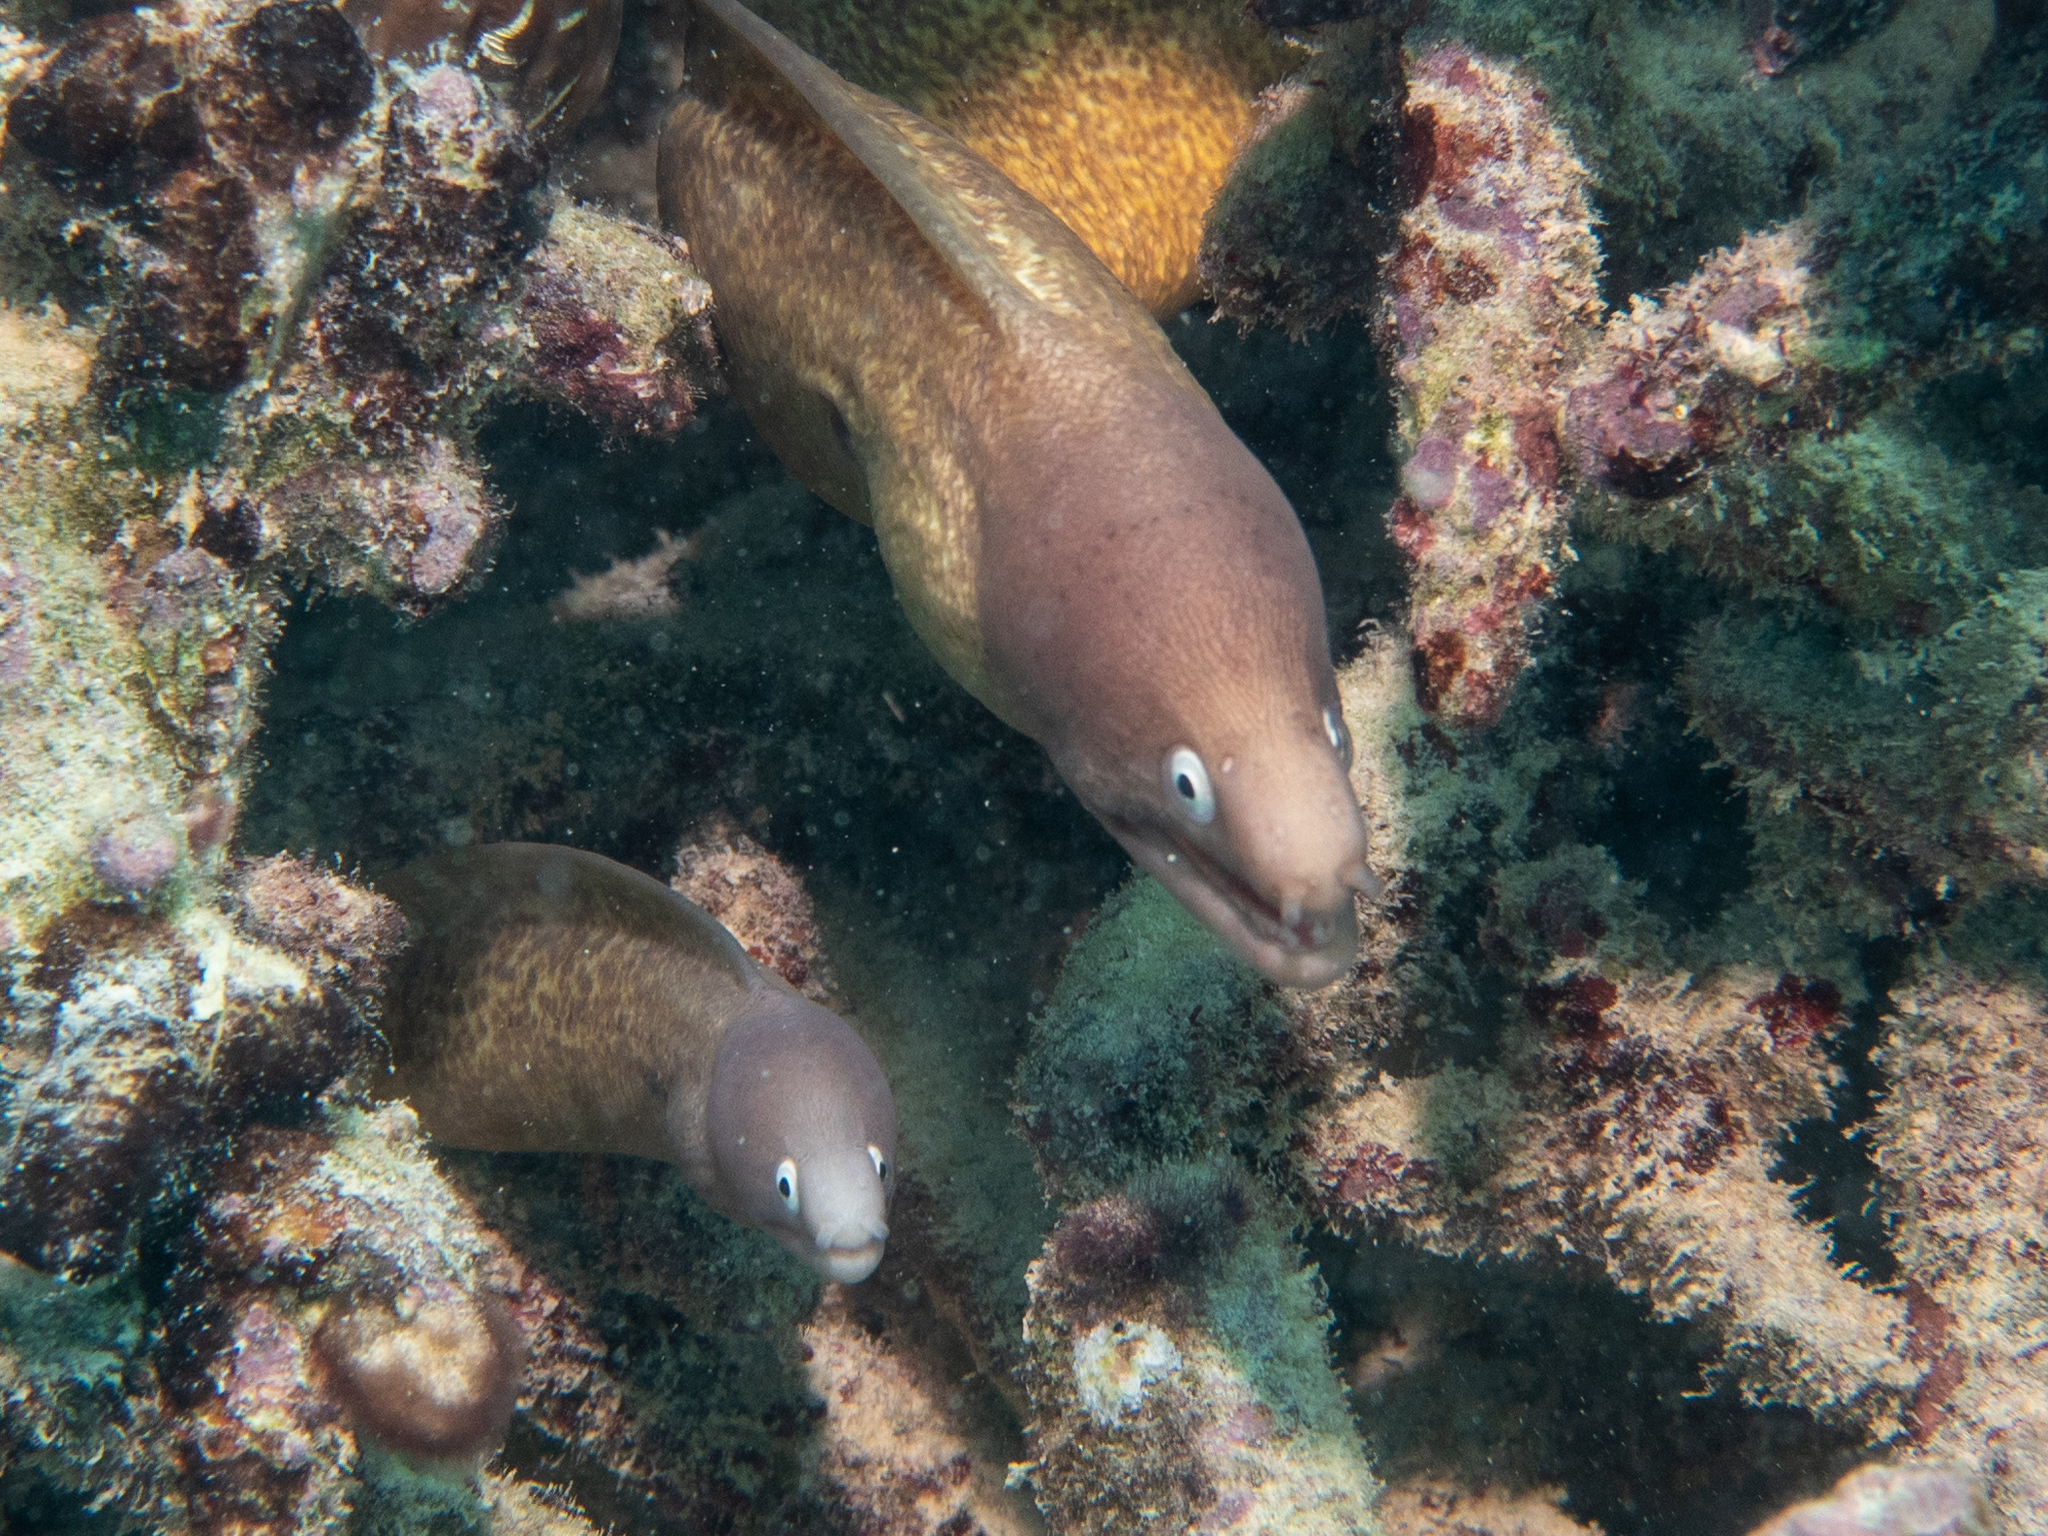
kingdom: Animalia
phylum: Chordata
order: Anguilliformes
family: Muraenidae
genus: Gymnothorax
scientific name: Gymnothorax thyrsoideus
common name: Greyface moray
